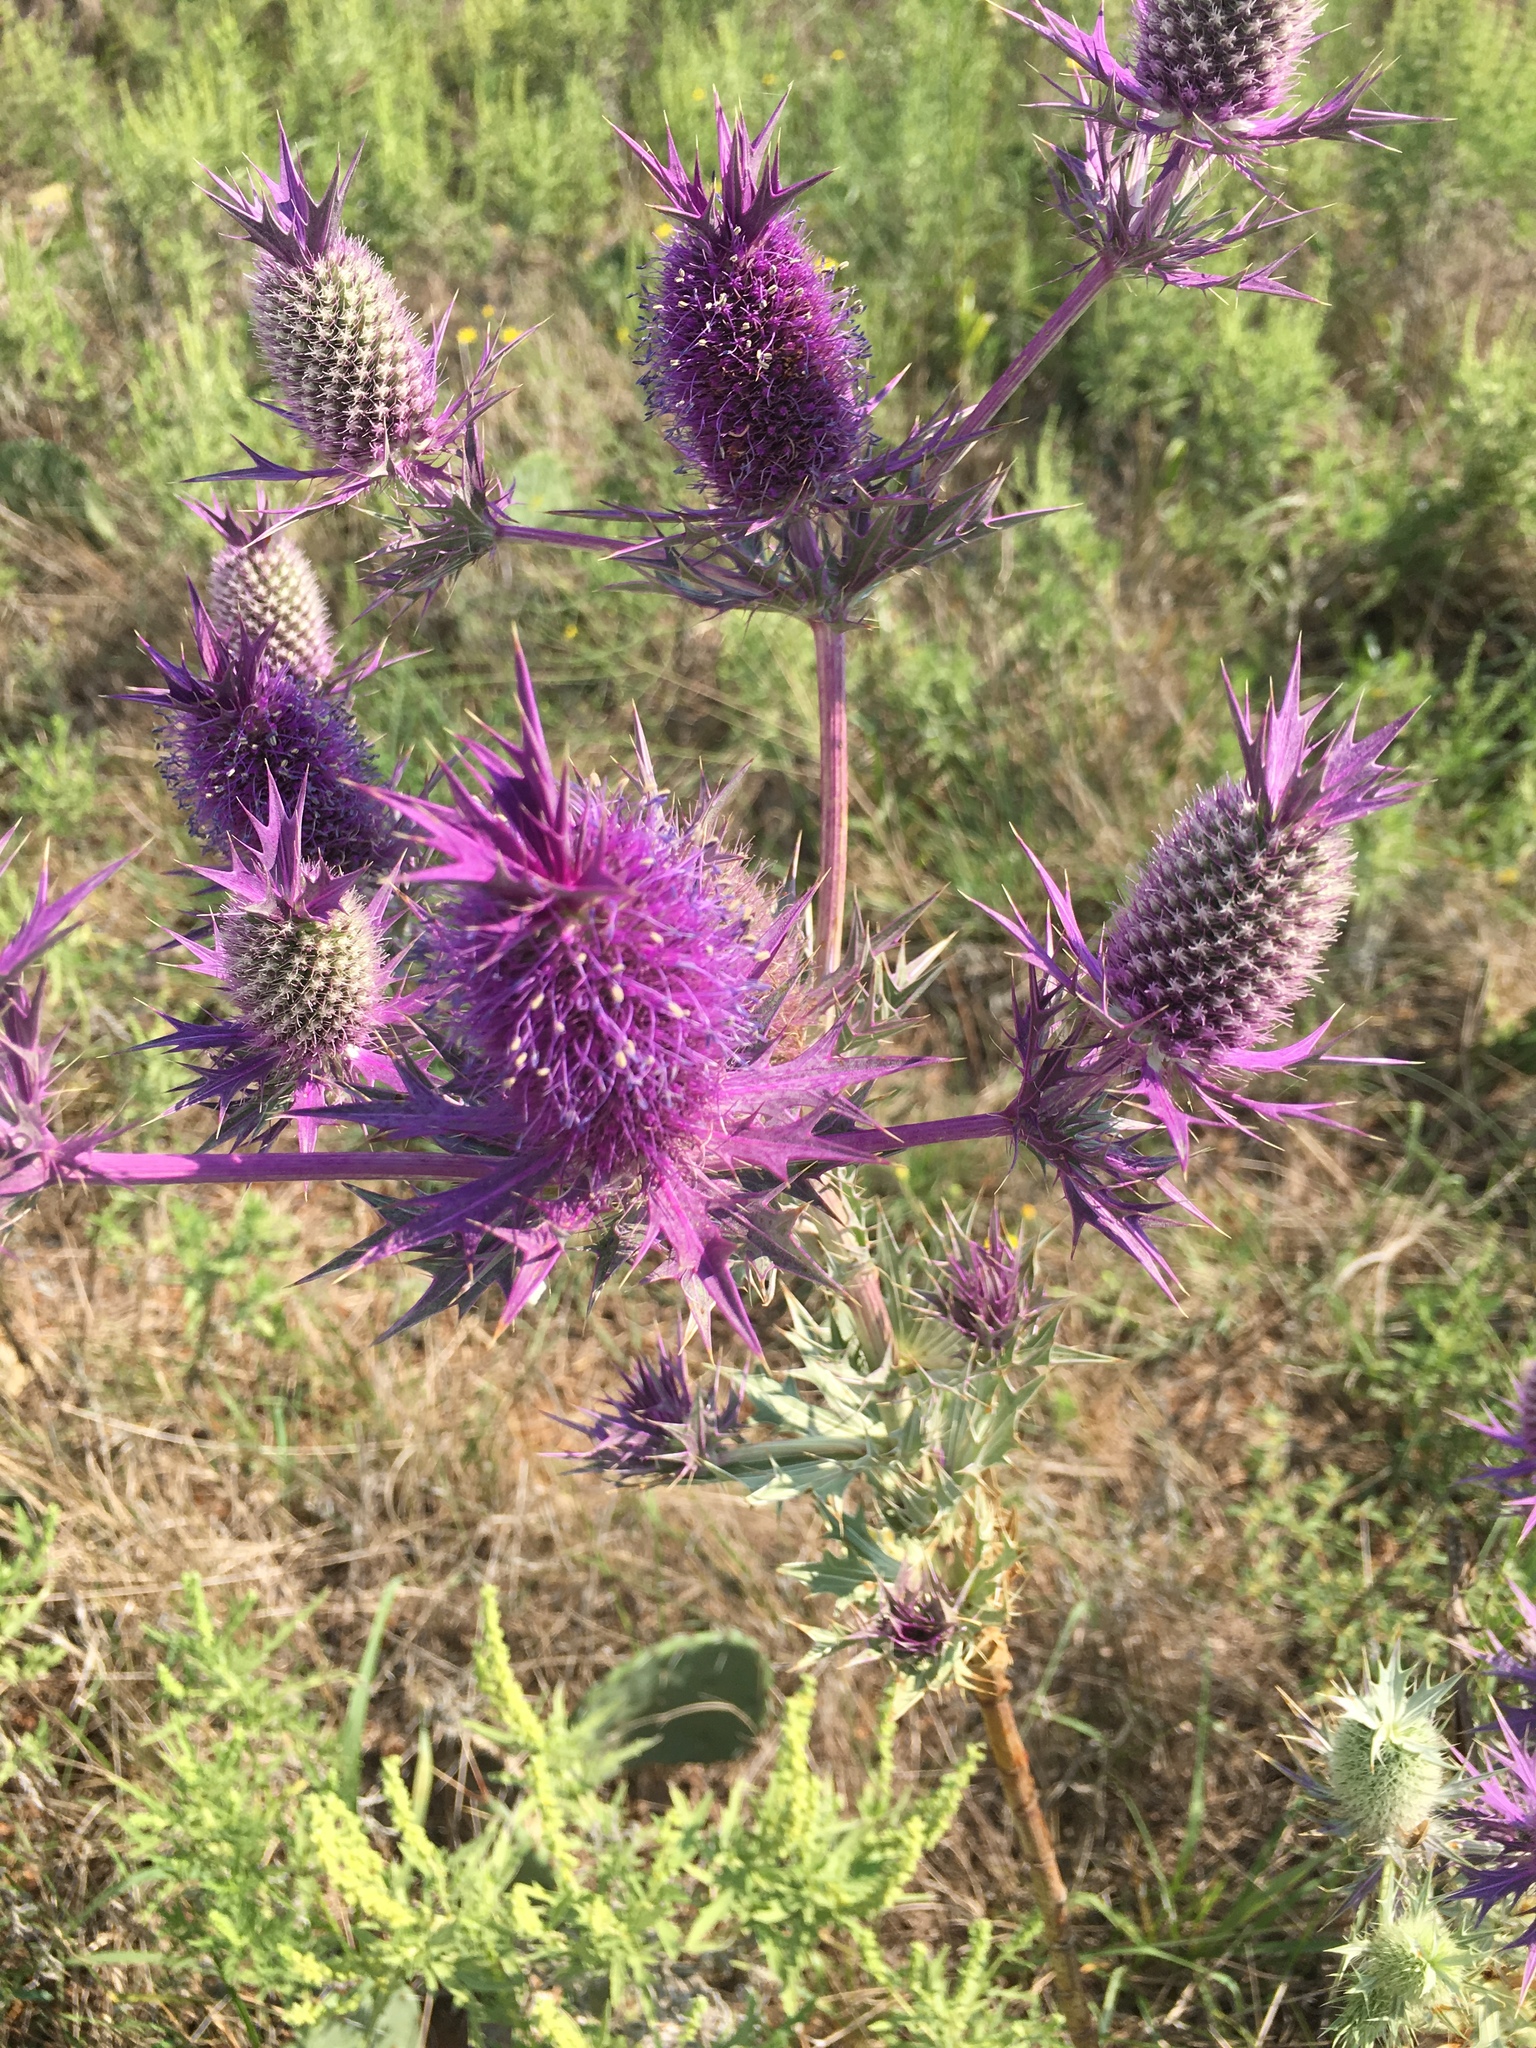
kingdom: Plantae
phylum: Tracheophyta
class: Magnoliopsida
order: Apiales
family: Apiaceae
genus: Eryngium
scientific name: Eryngium leavenworthii
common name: Leavenworth's eryngo
